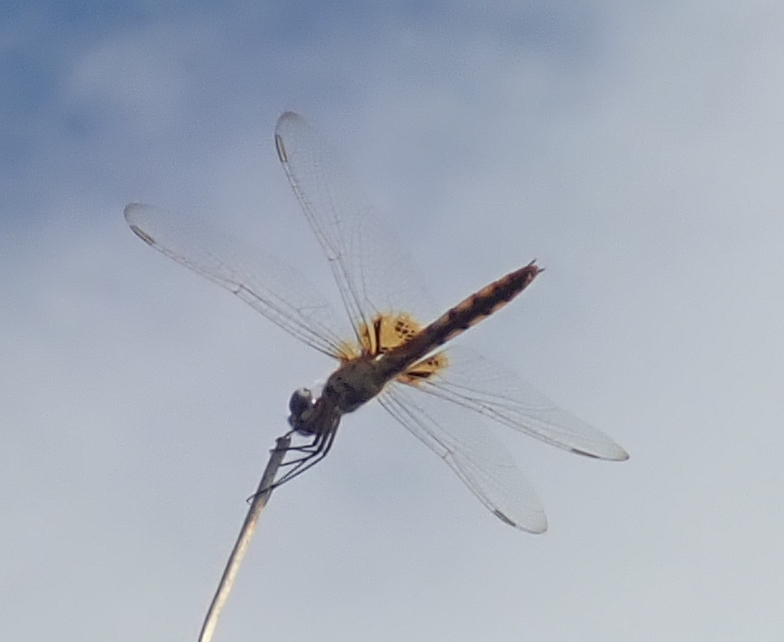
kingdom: Animalia
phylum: Arthropoda
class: Insecta
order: Odonata
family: Libellulidae
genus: Urothemis
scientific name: Urothemis edwardsii
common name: Blue basker
